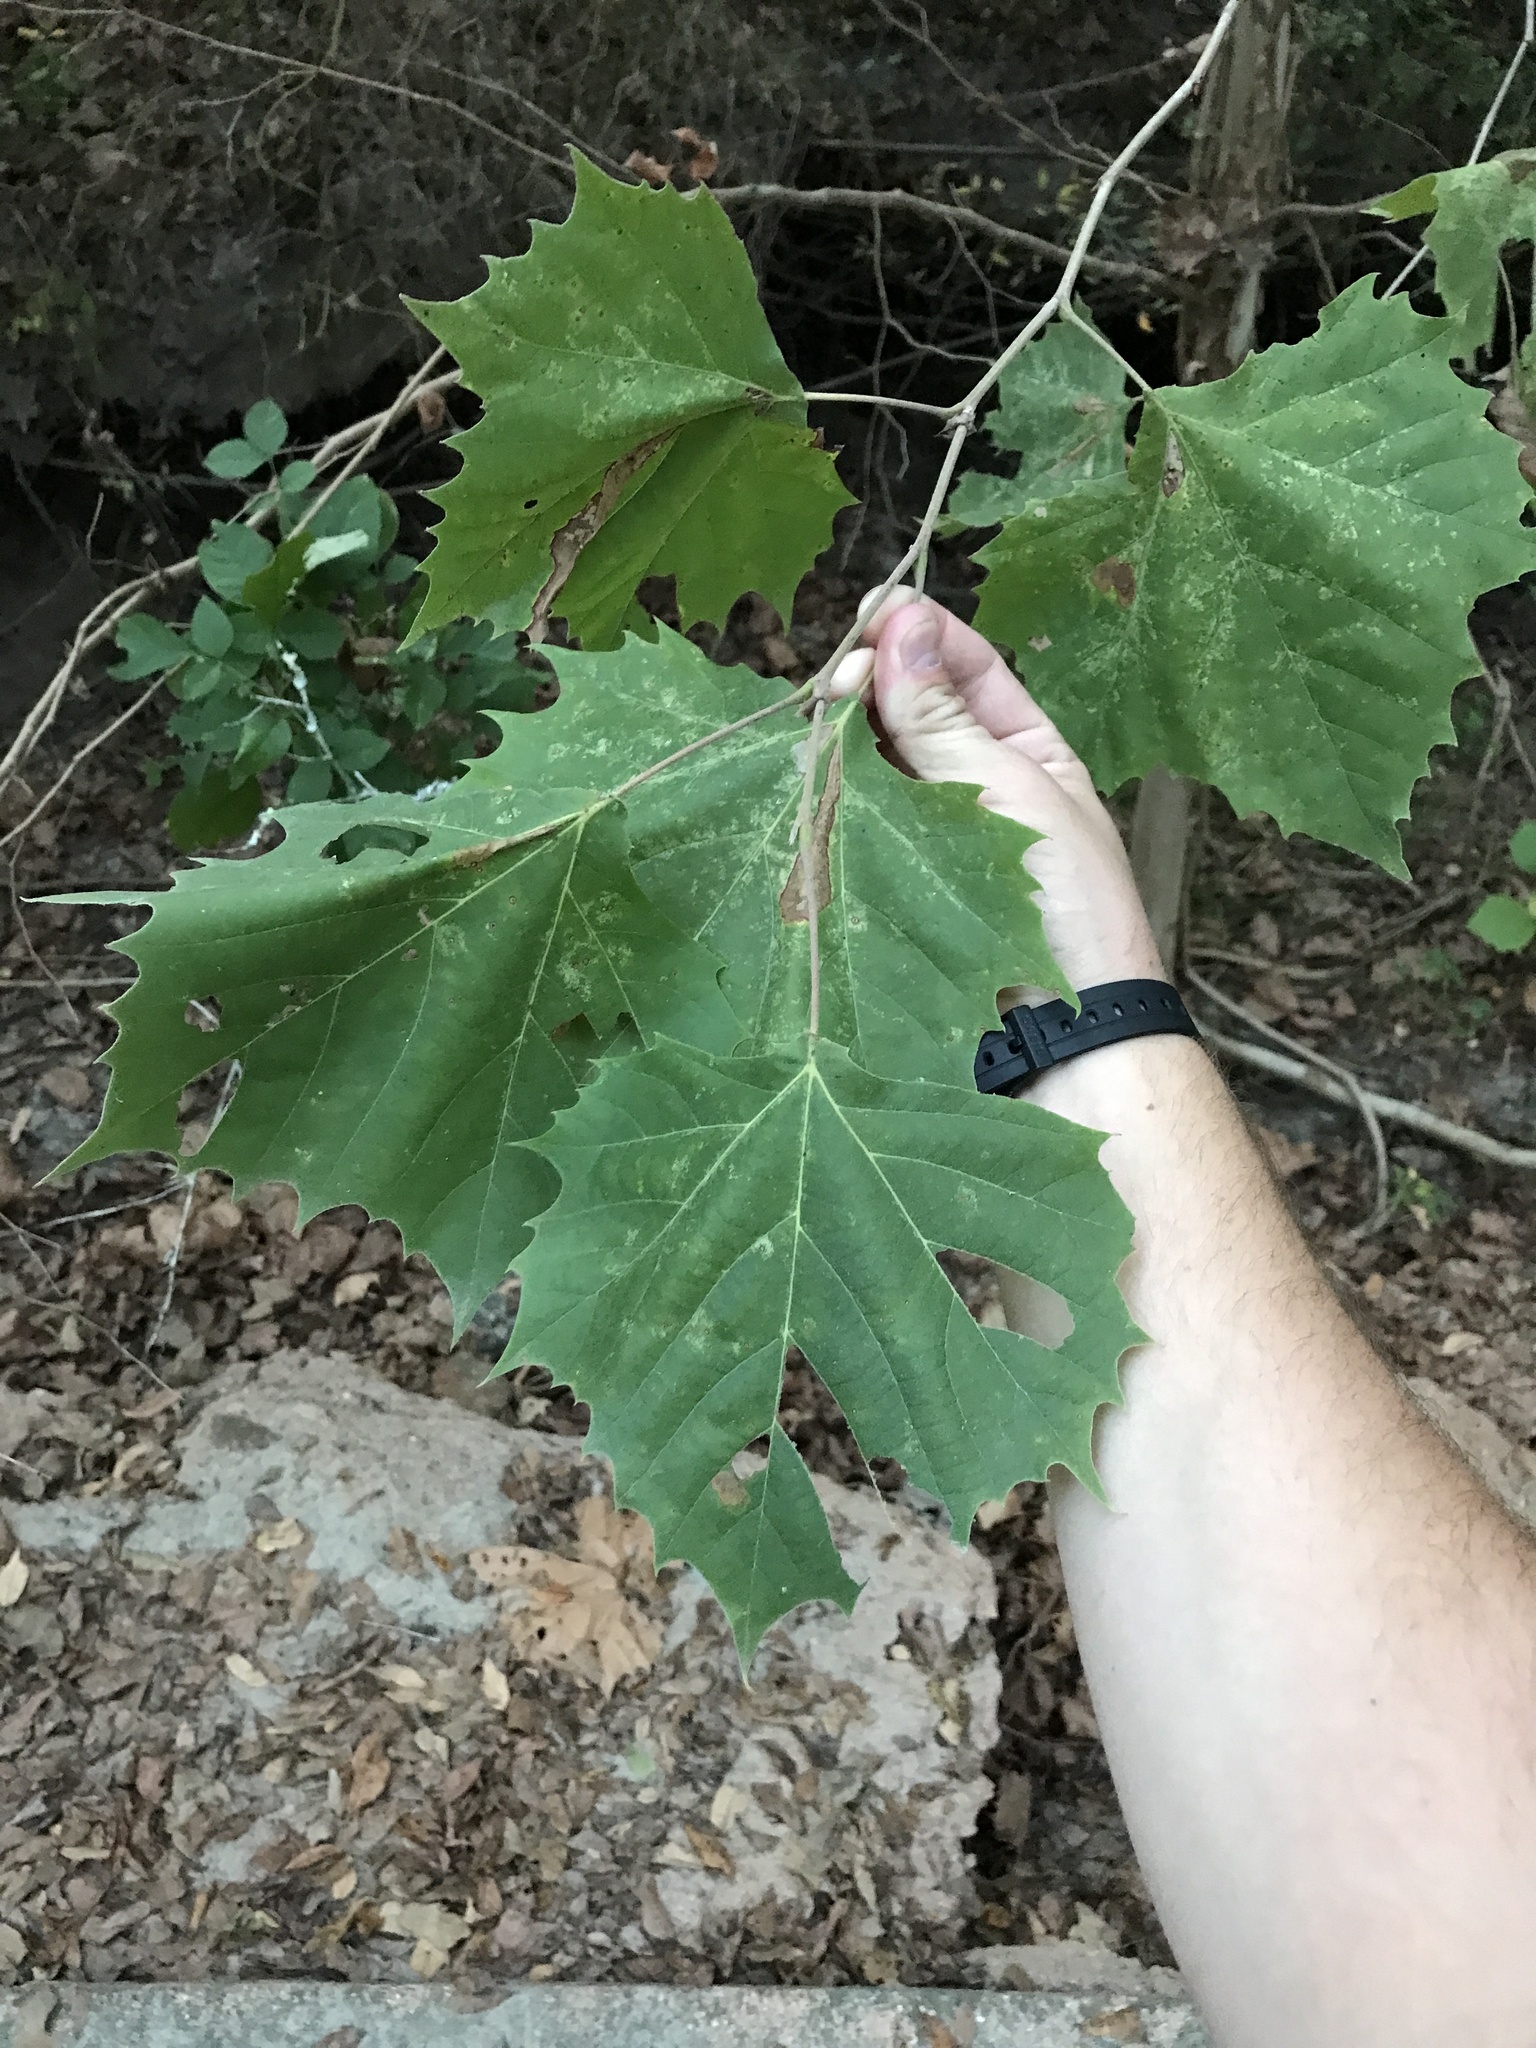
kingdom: Plantae
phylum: Tracheophyta
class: Magnoliopsida
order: Proteales
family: Platanaceae
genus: Platanus
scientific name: Platanus occidentalis
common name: American sycamore
